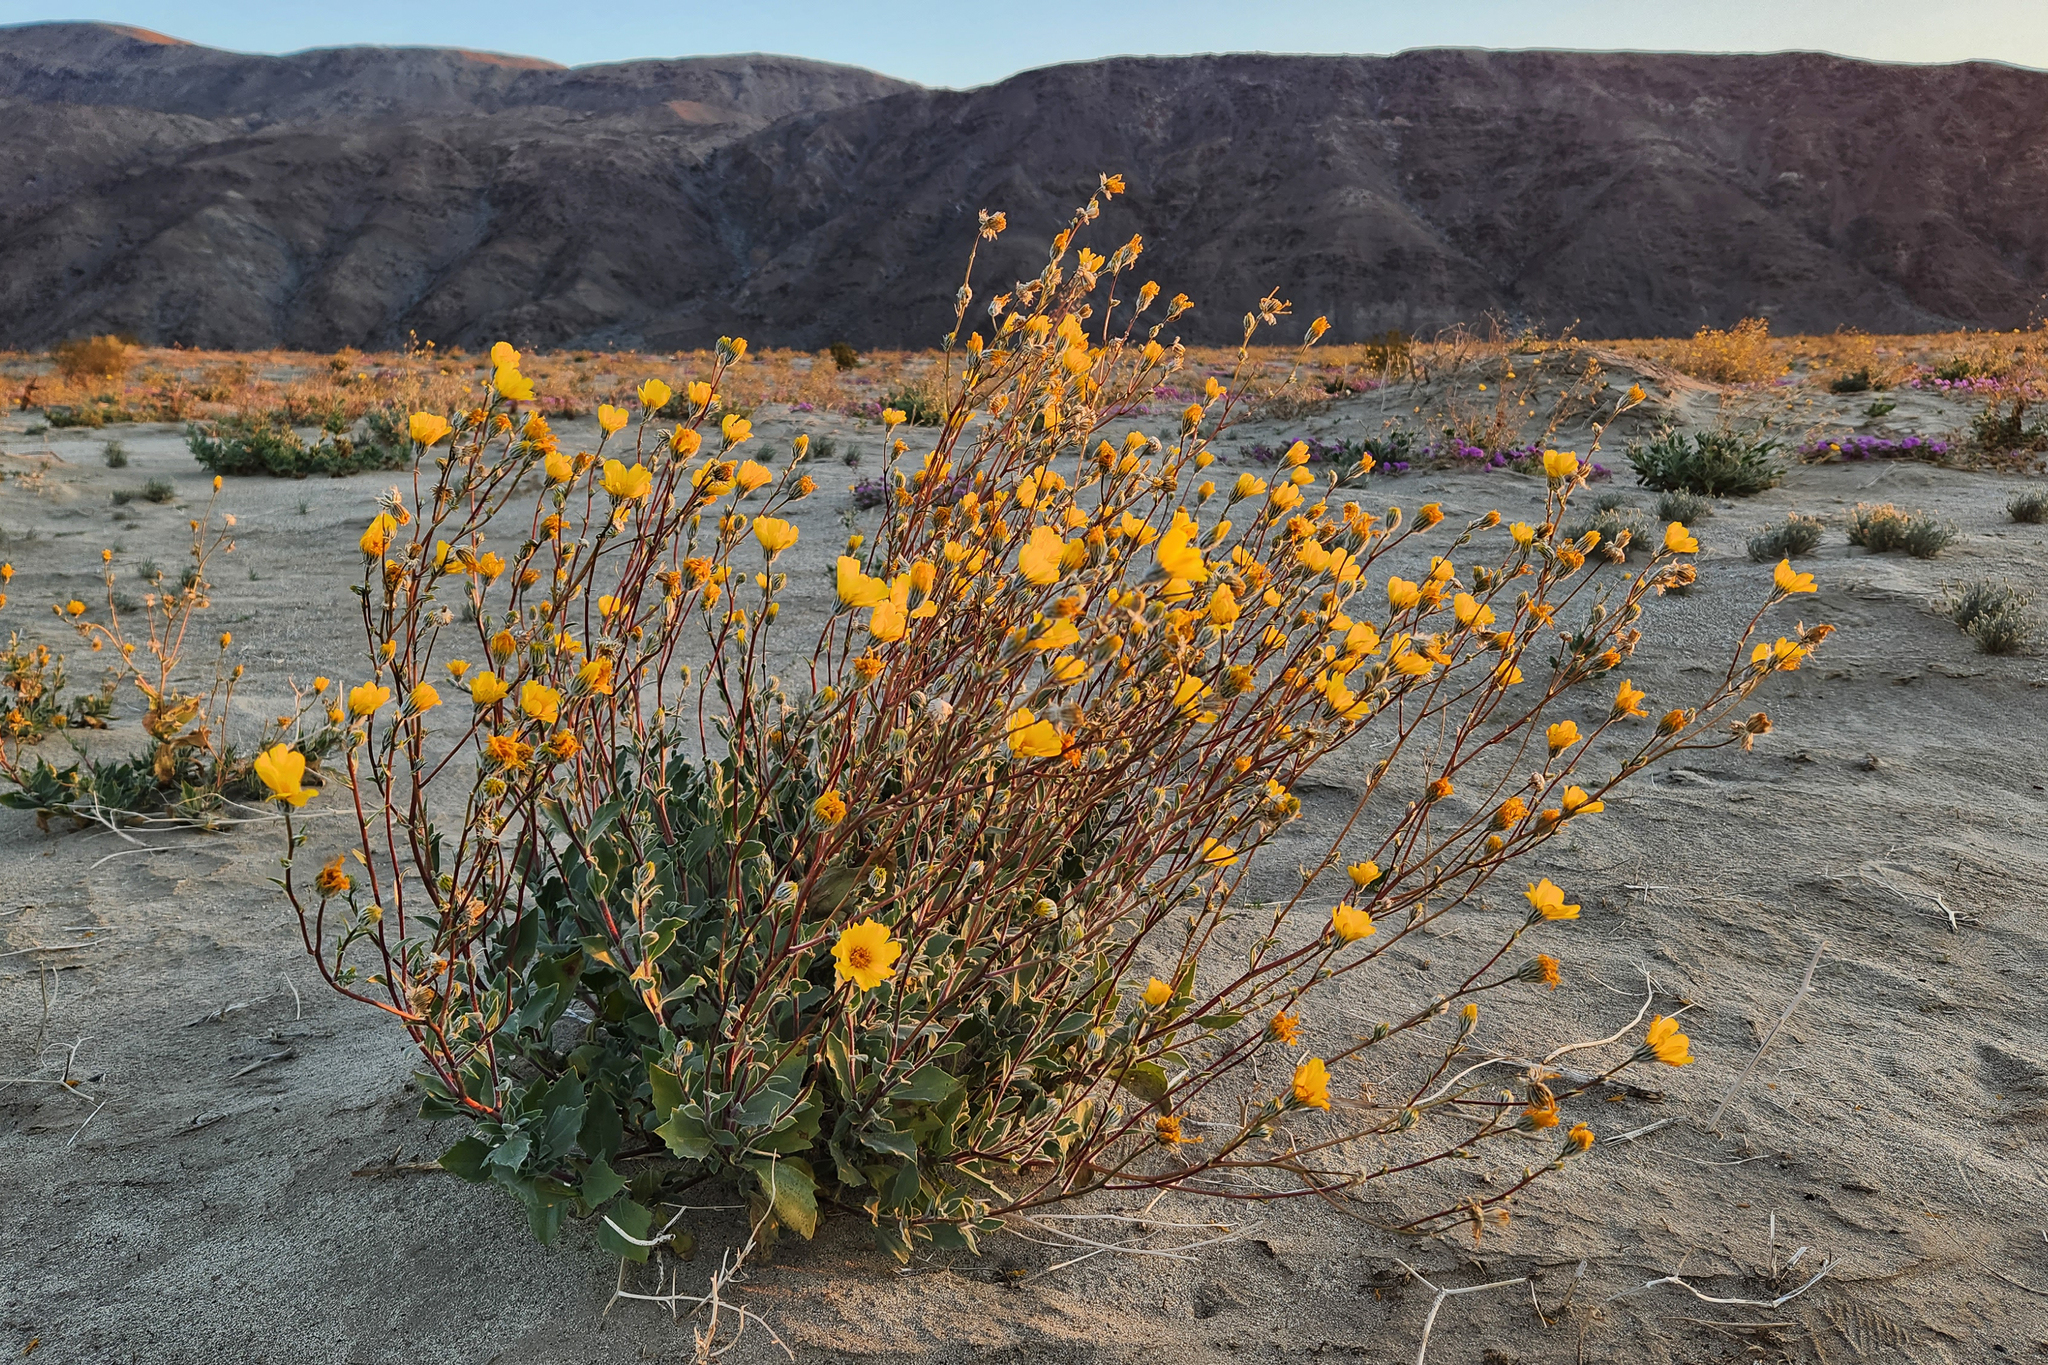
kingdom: Plantae
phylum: Tracheophyta
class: Magnoliopsida
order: Asterales
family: Asteraceae
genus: Geraea
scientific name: Geraea canescens
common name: Desert-gold
